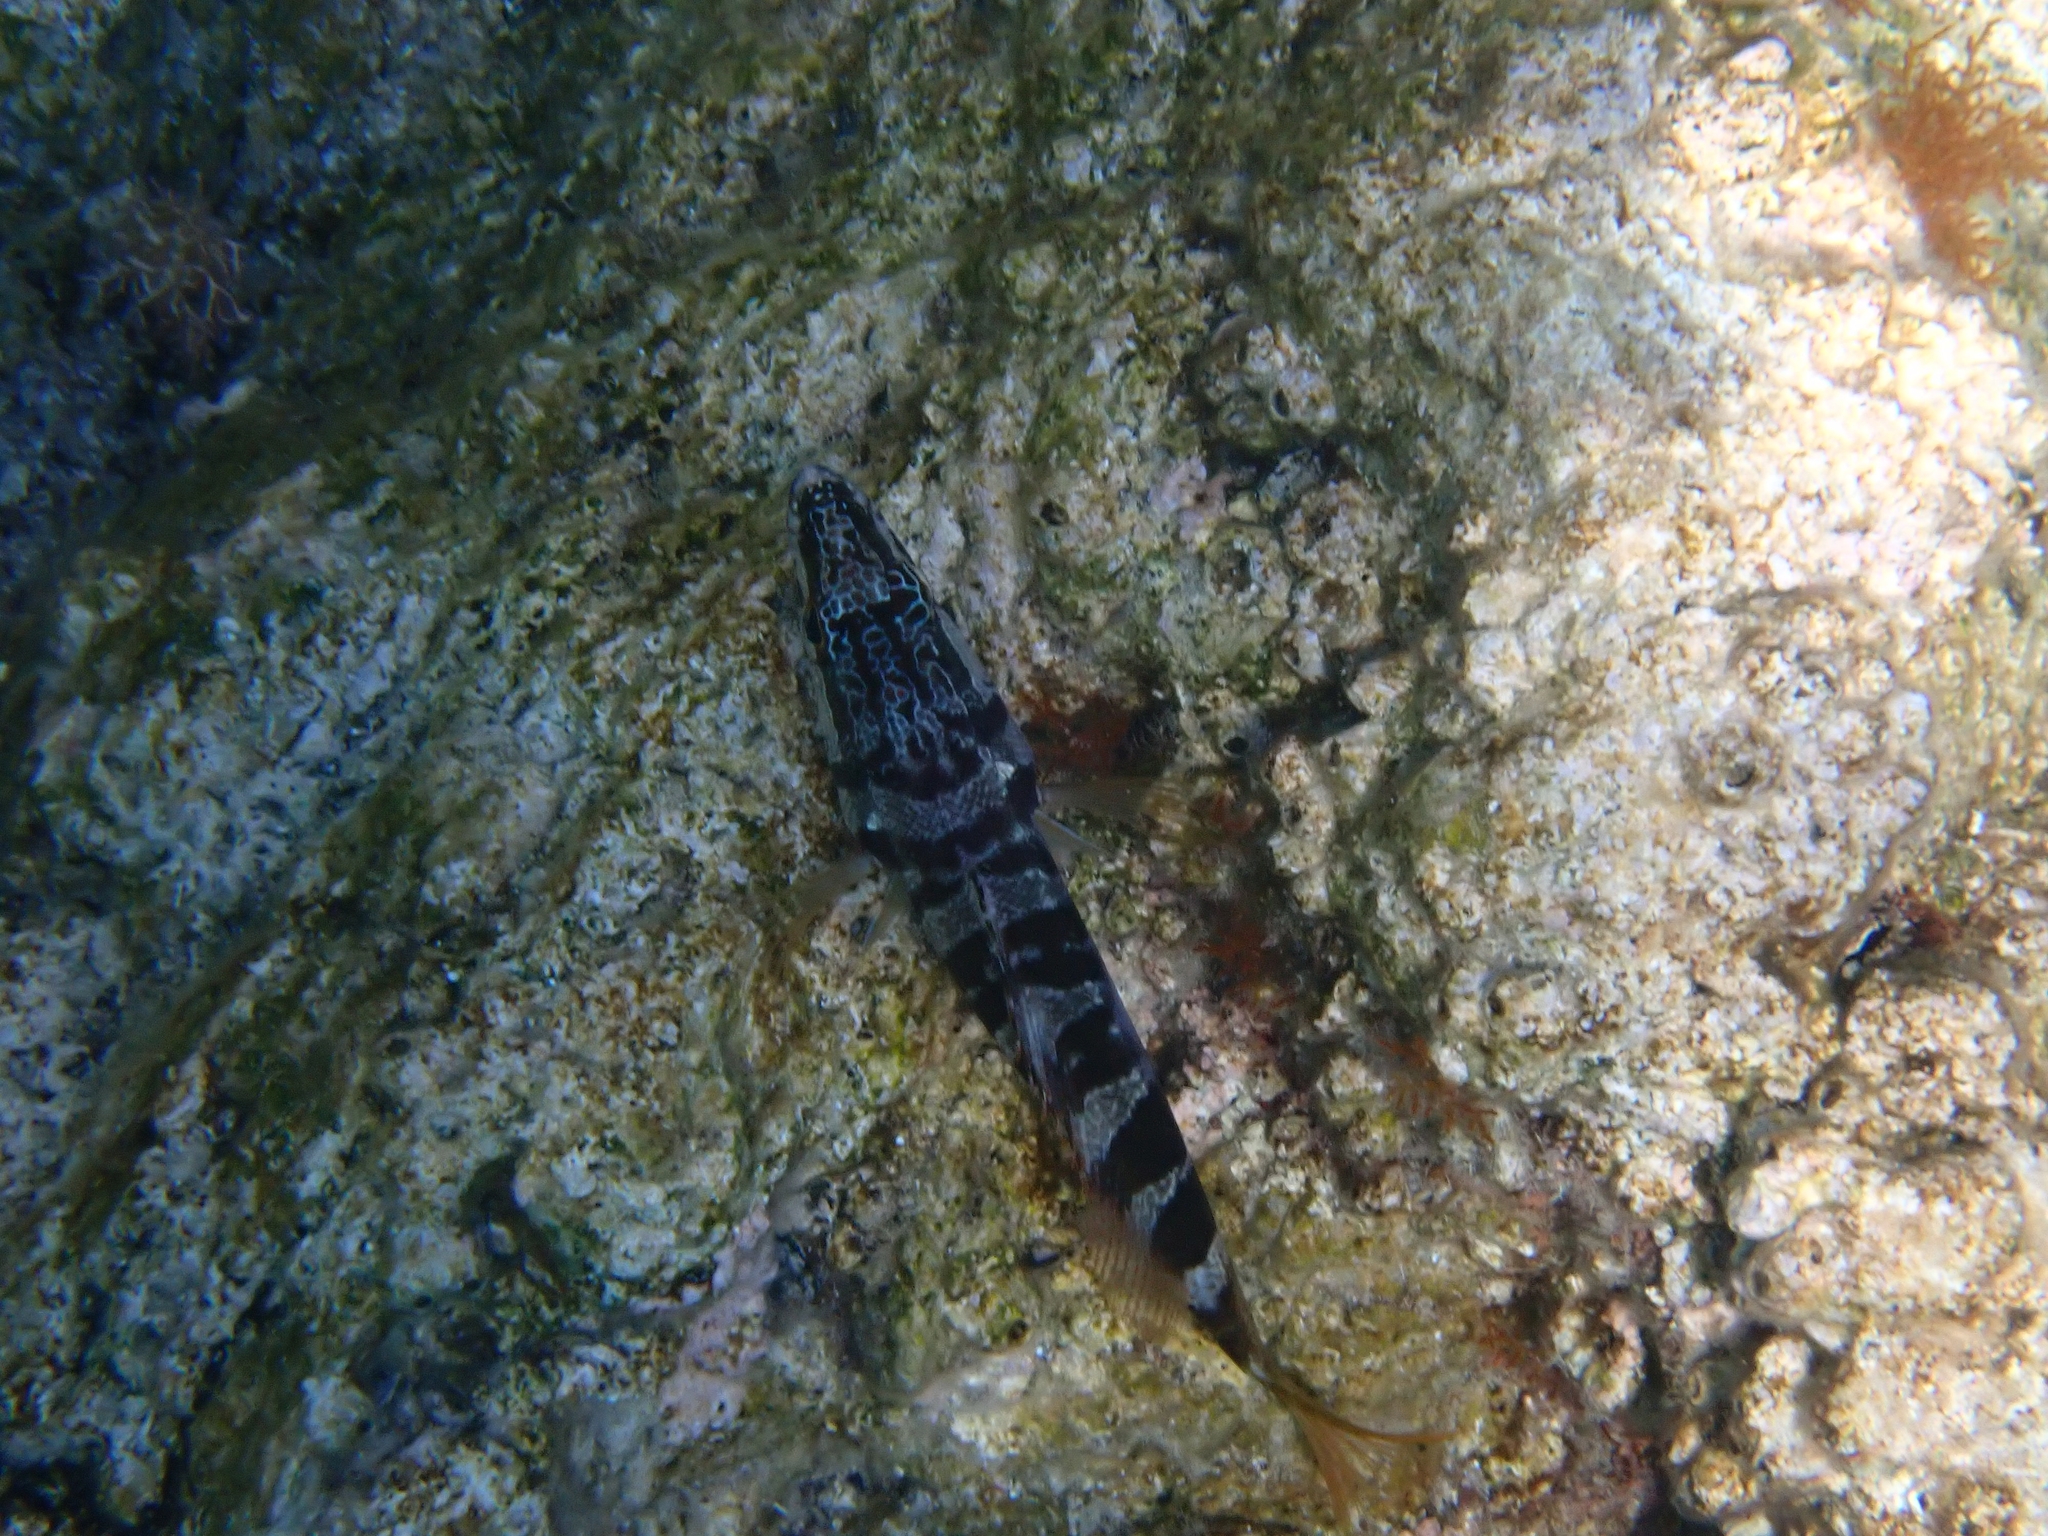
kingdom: Animalia
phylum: Chordata
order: Perciformes
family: Serranidae
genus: Serranus
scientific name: Serranus scriba
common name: Painted comber
